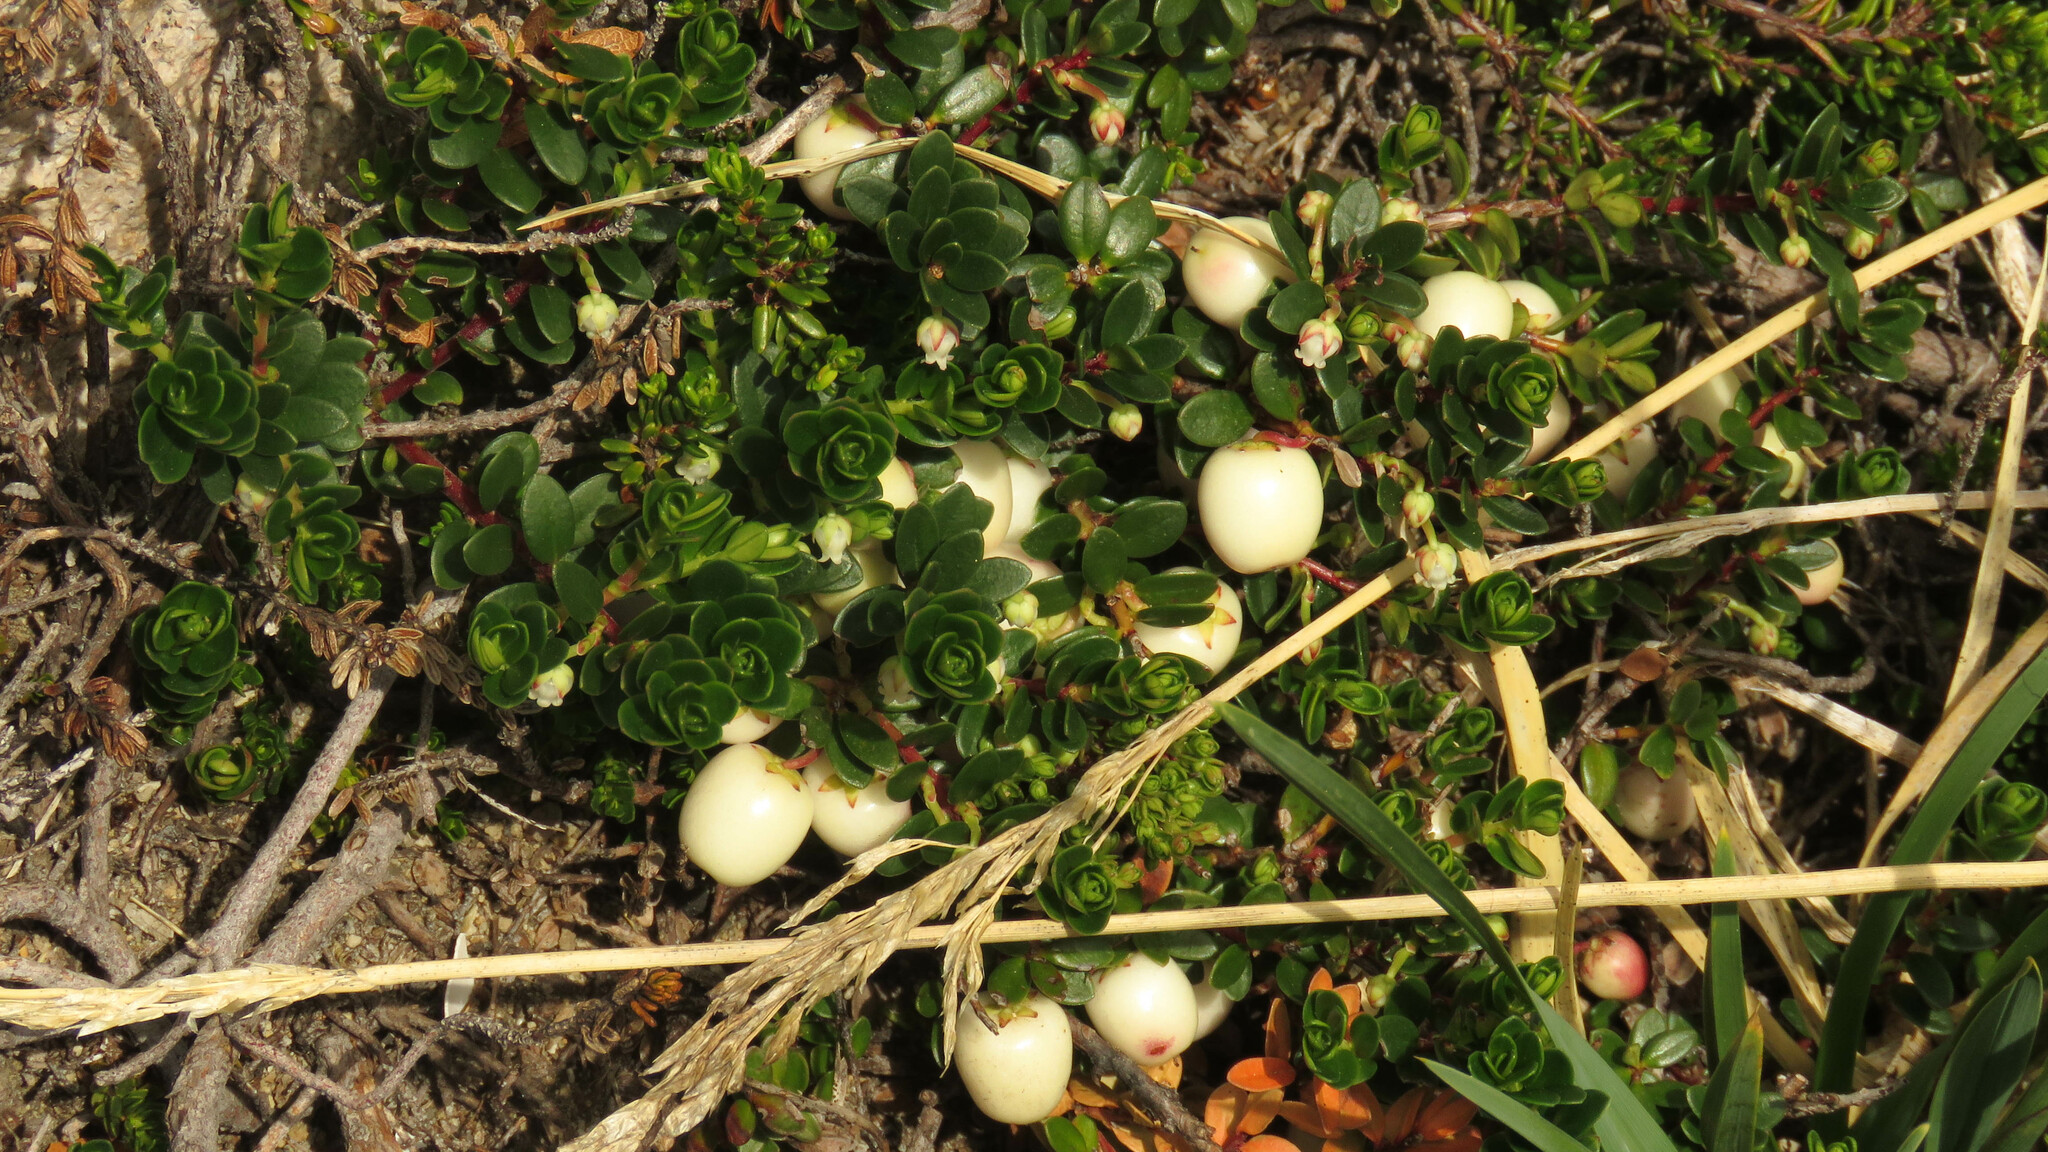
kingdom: Plantae
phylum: Tracheophyta
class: Magnoliopsida
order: Ericales
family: Ericaceae
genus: Gaultheria
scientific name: Gaultheria pumila
